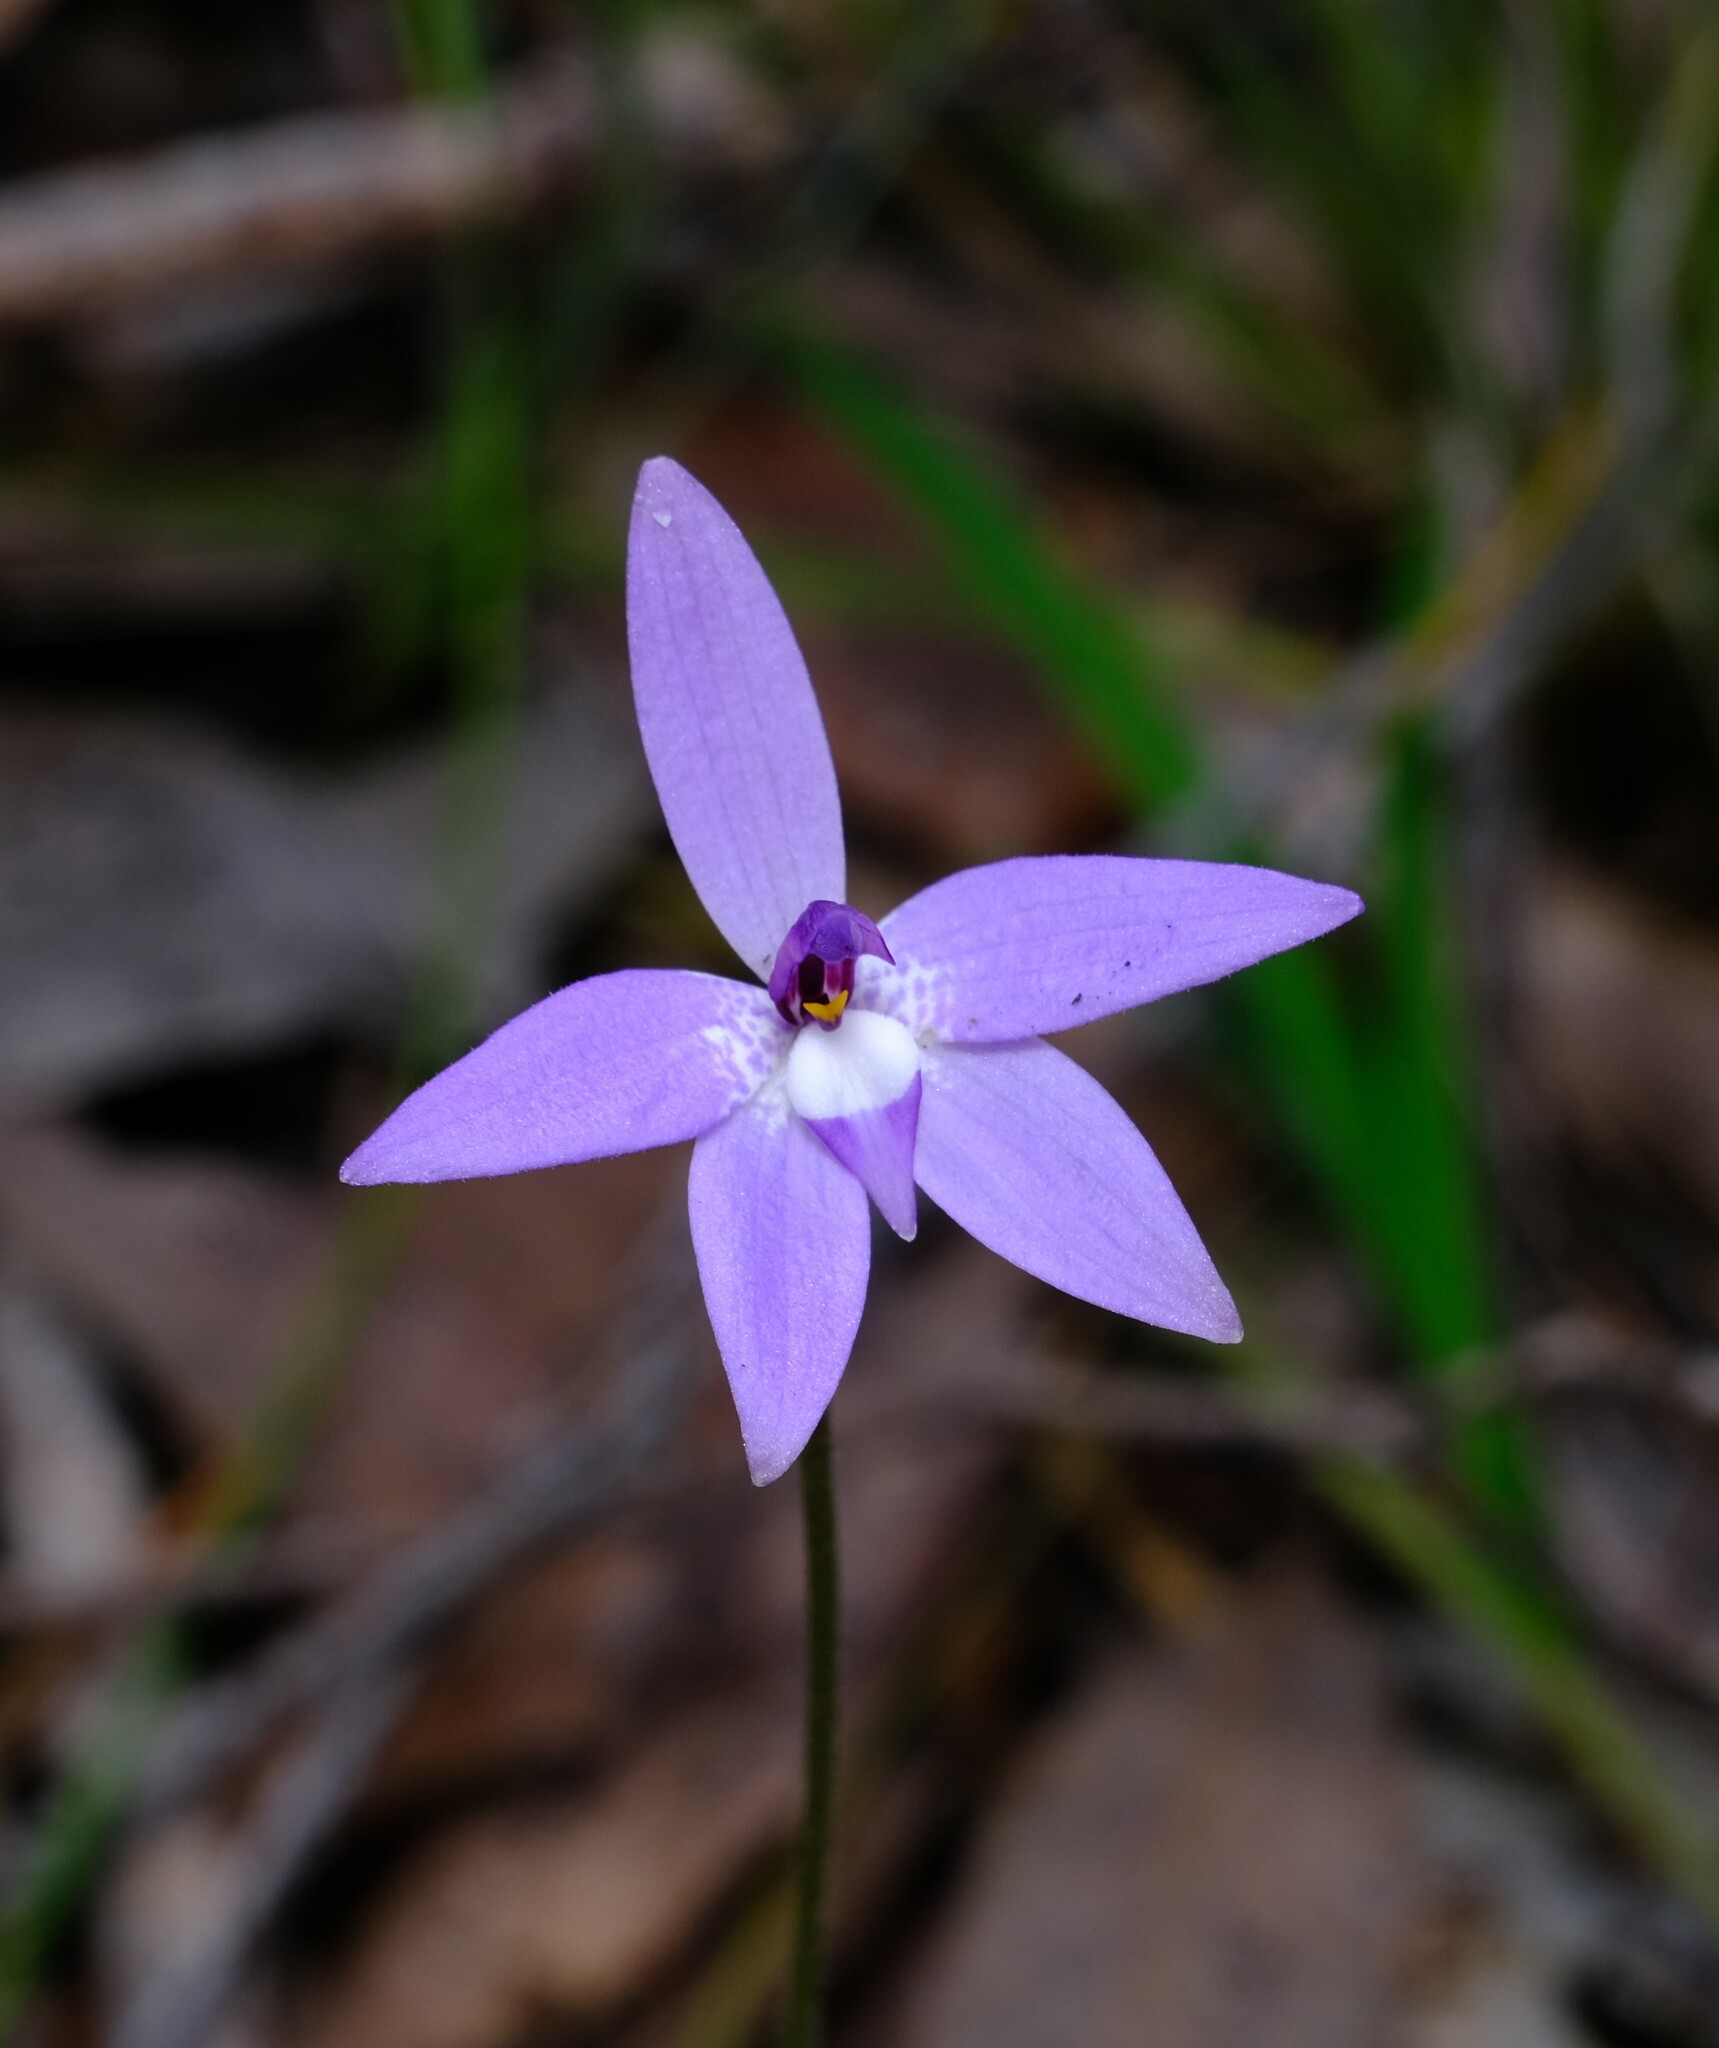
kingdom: Plantae
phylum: Tracheophyta
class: Liliopsida
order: Asparagales
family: Orchidaceae
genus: Caladenia
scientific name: Caladenia major
